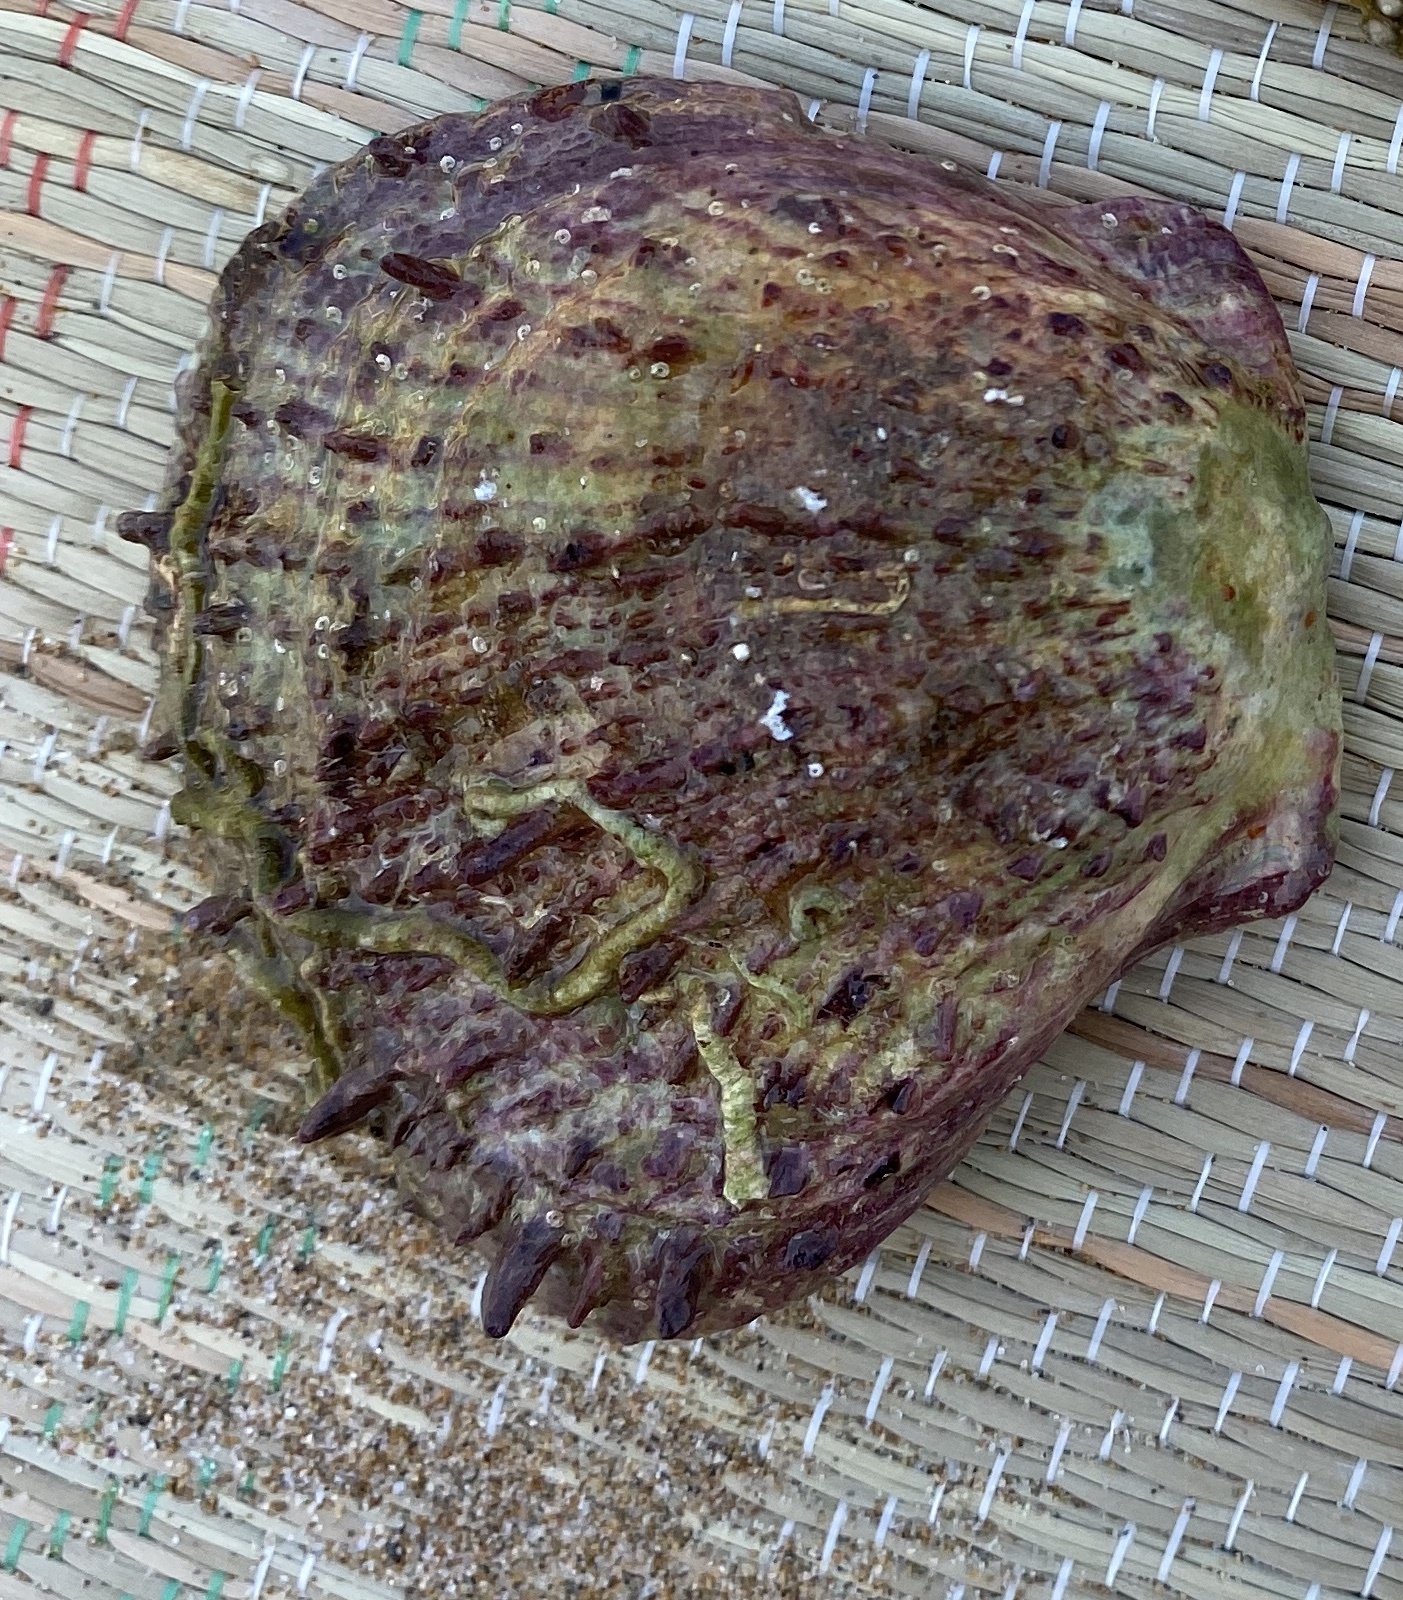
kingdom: Animalia
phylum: Mollusca
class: Bivalvia
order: Pectinida
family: Spondylidae
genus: Spondylus
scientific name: Spondylus gaederopus
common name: European thorny oyster
